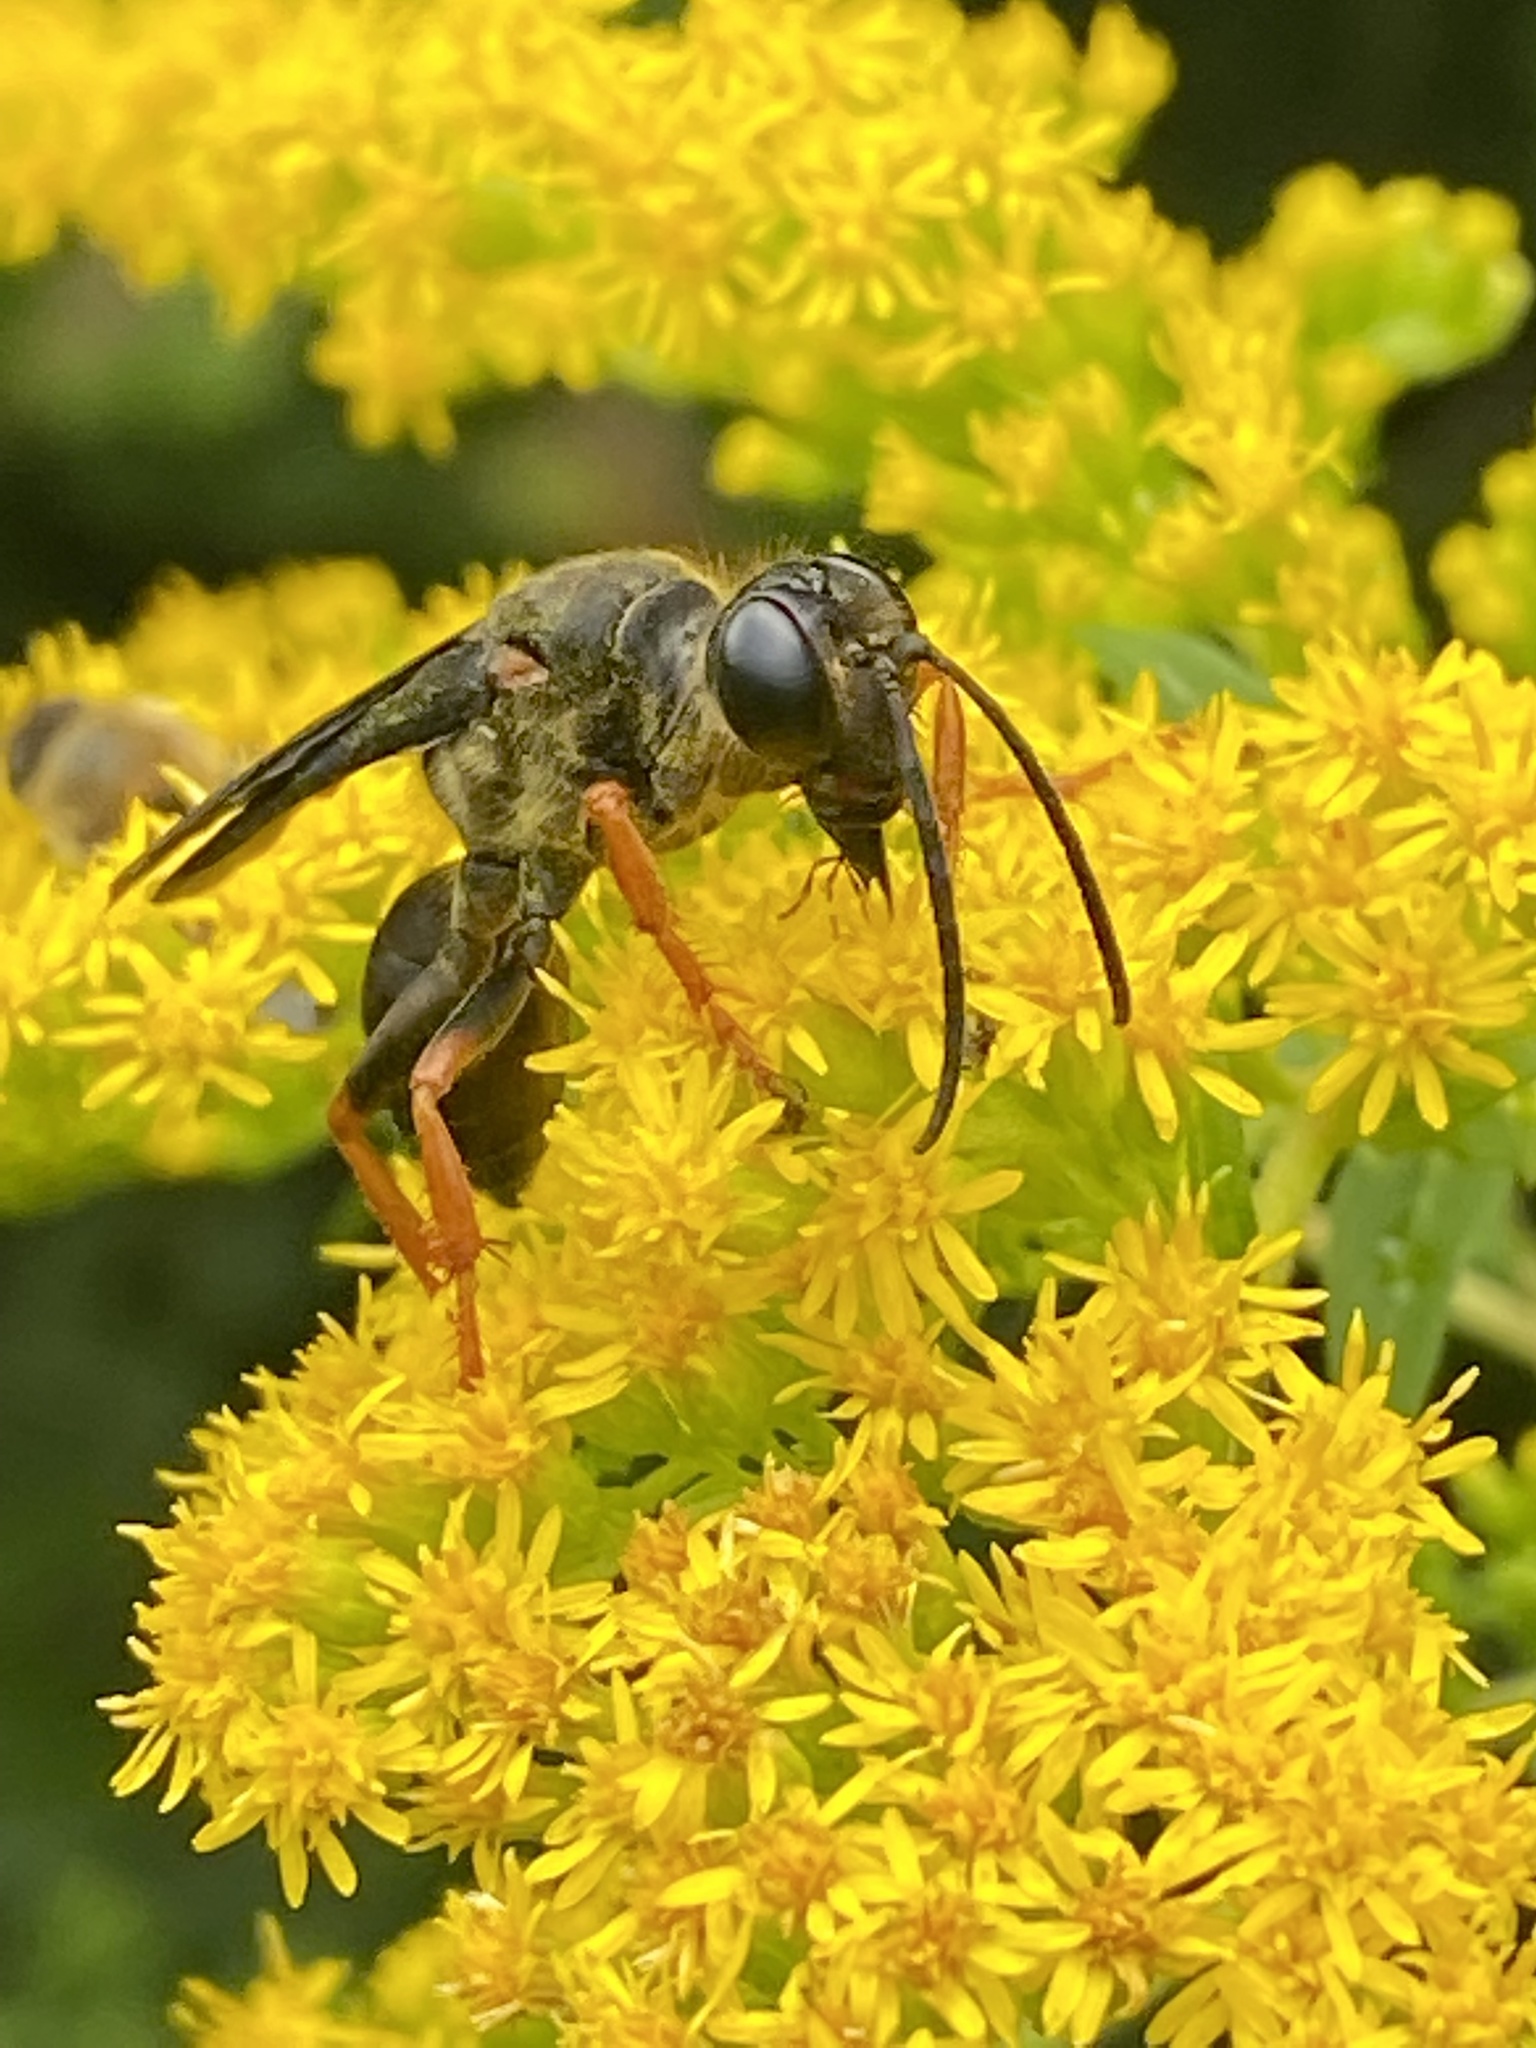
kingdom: Animalia
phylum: Arthropoda
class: Insecta
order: Hymenoptera
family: Sphecidae
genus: Sphex
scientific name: Sphex nudus
